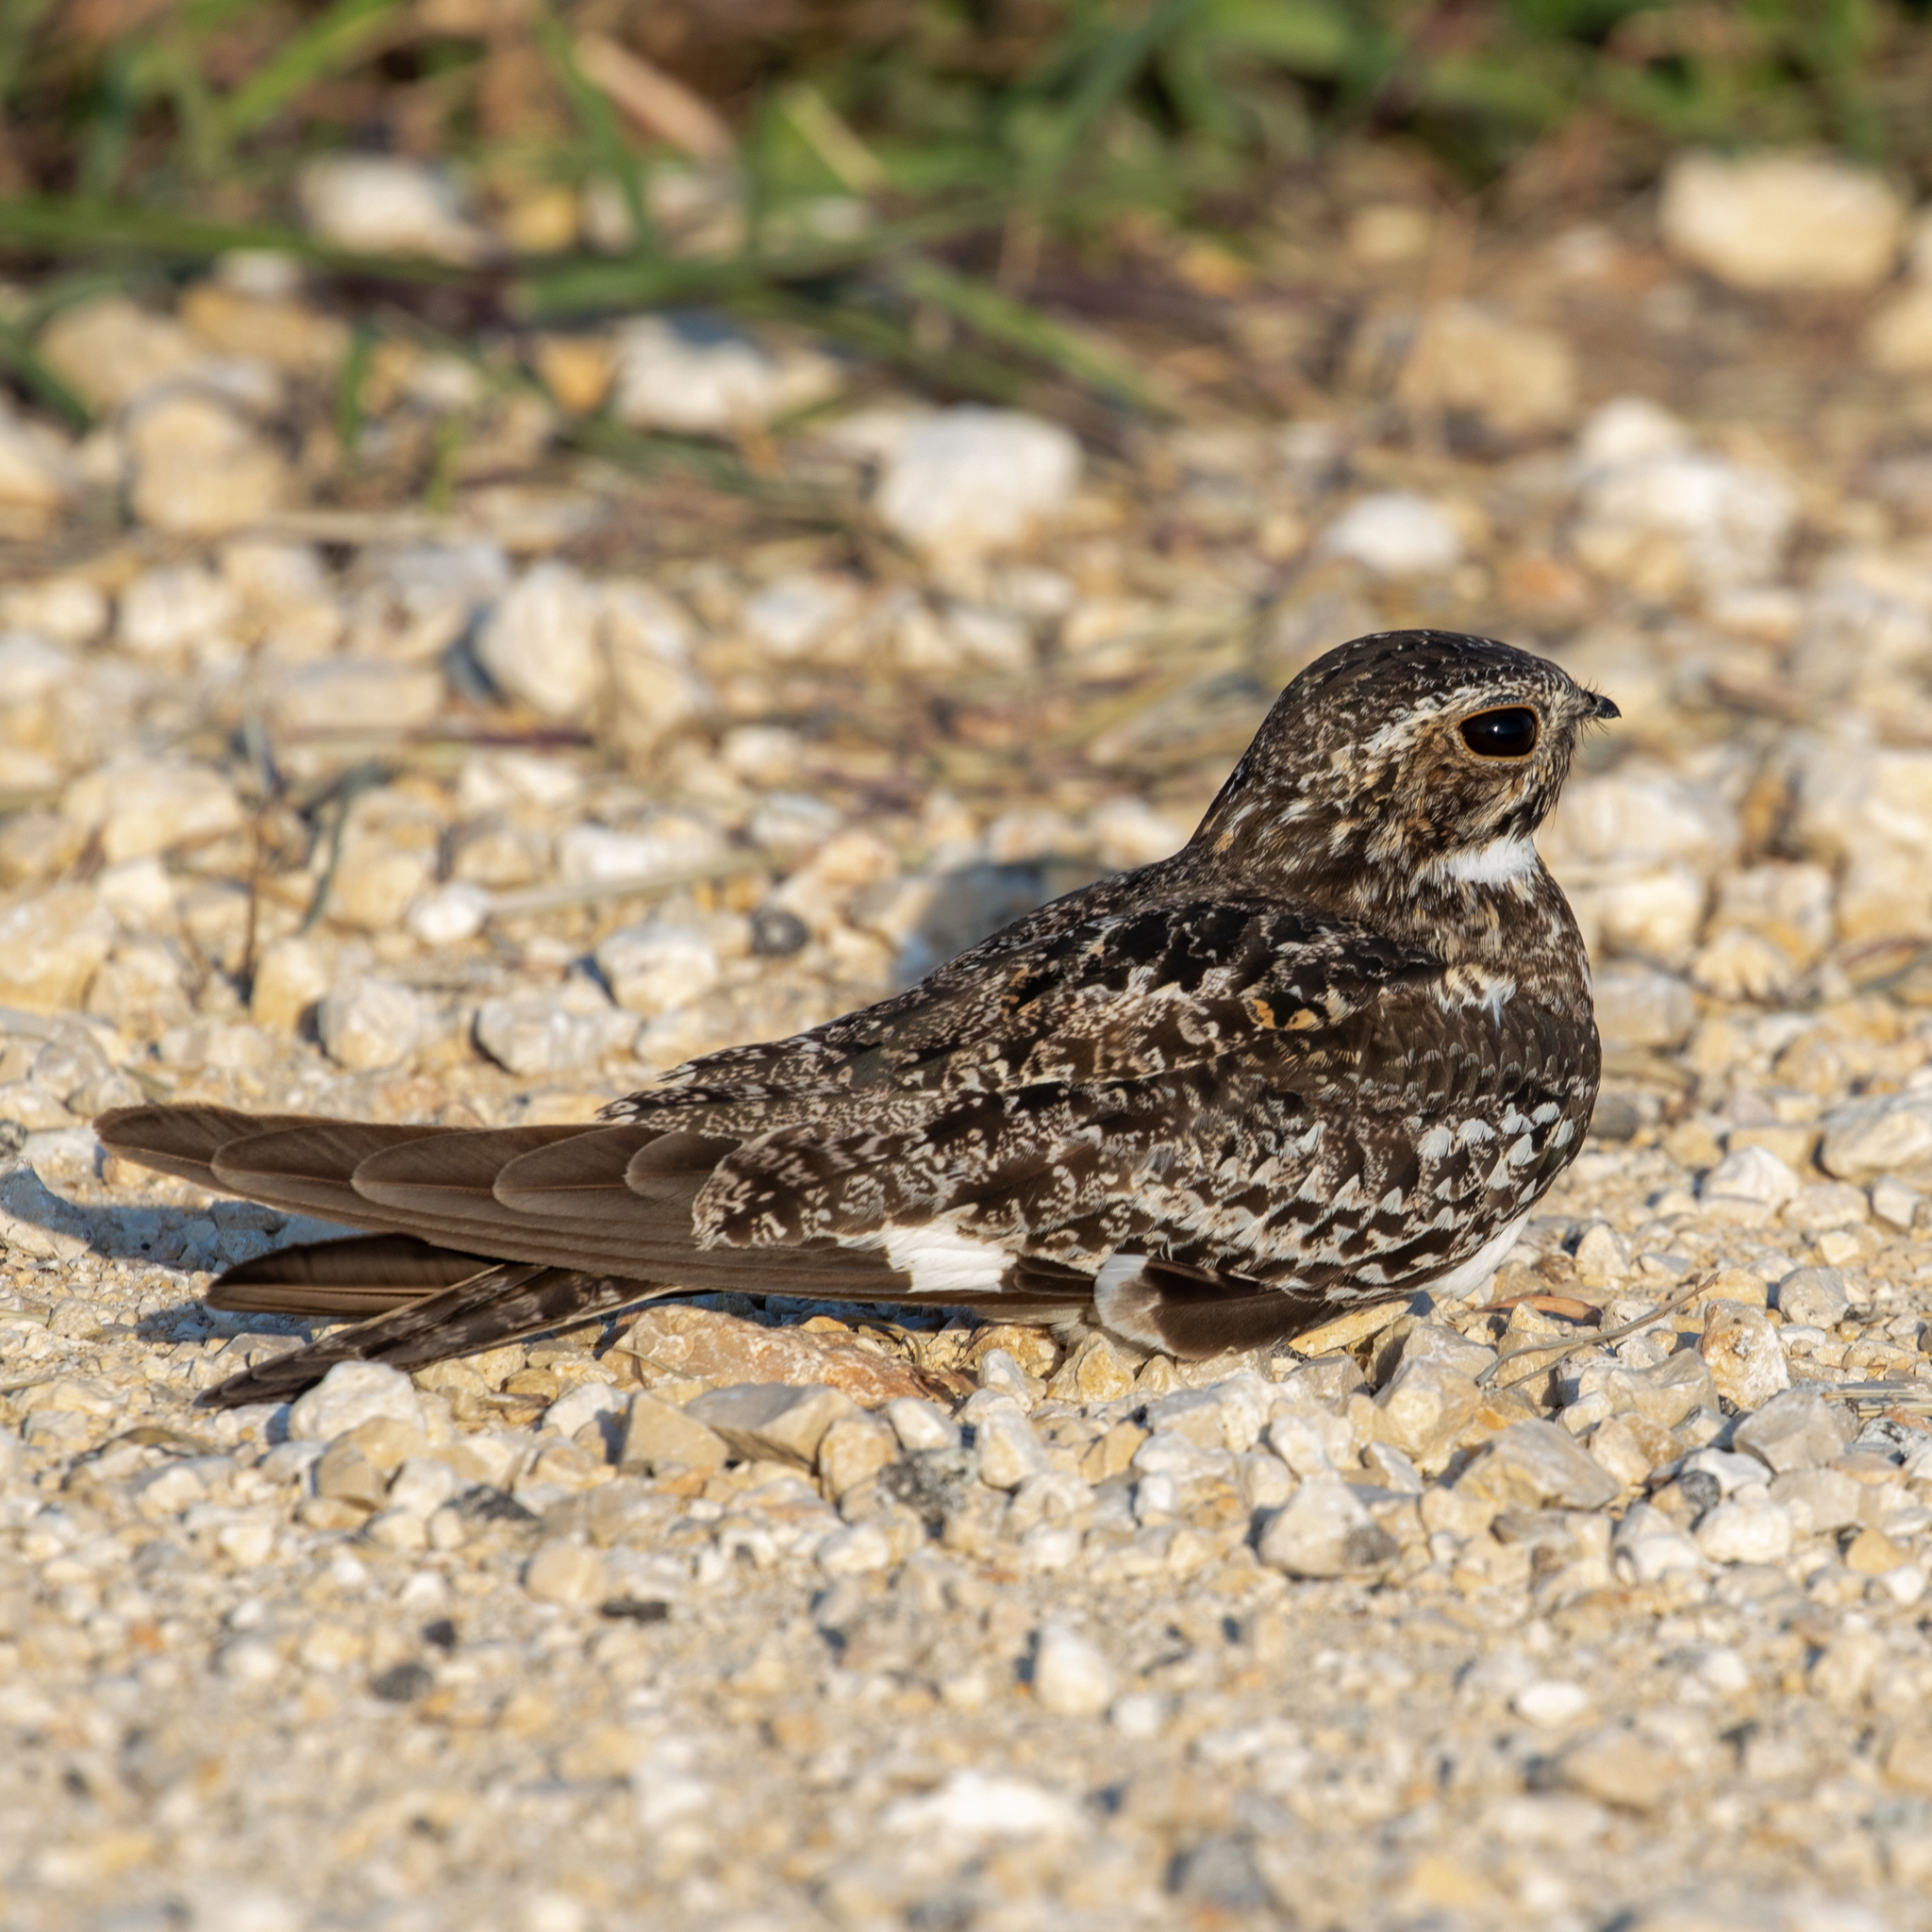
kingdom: Animalia
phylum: Chordata
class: Aves
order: Caprimulgiformes
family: Caprimulgidae
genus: Chordeiles
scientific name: Chordeiles minor
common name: Common nighthawk
